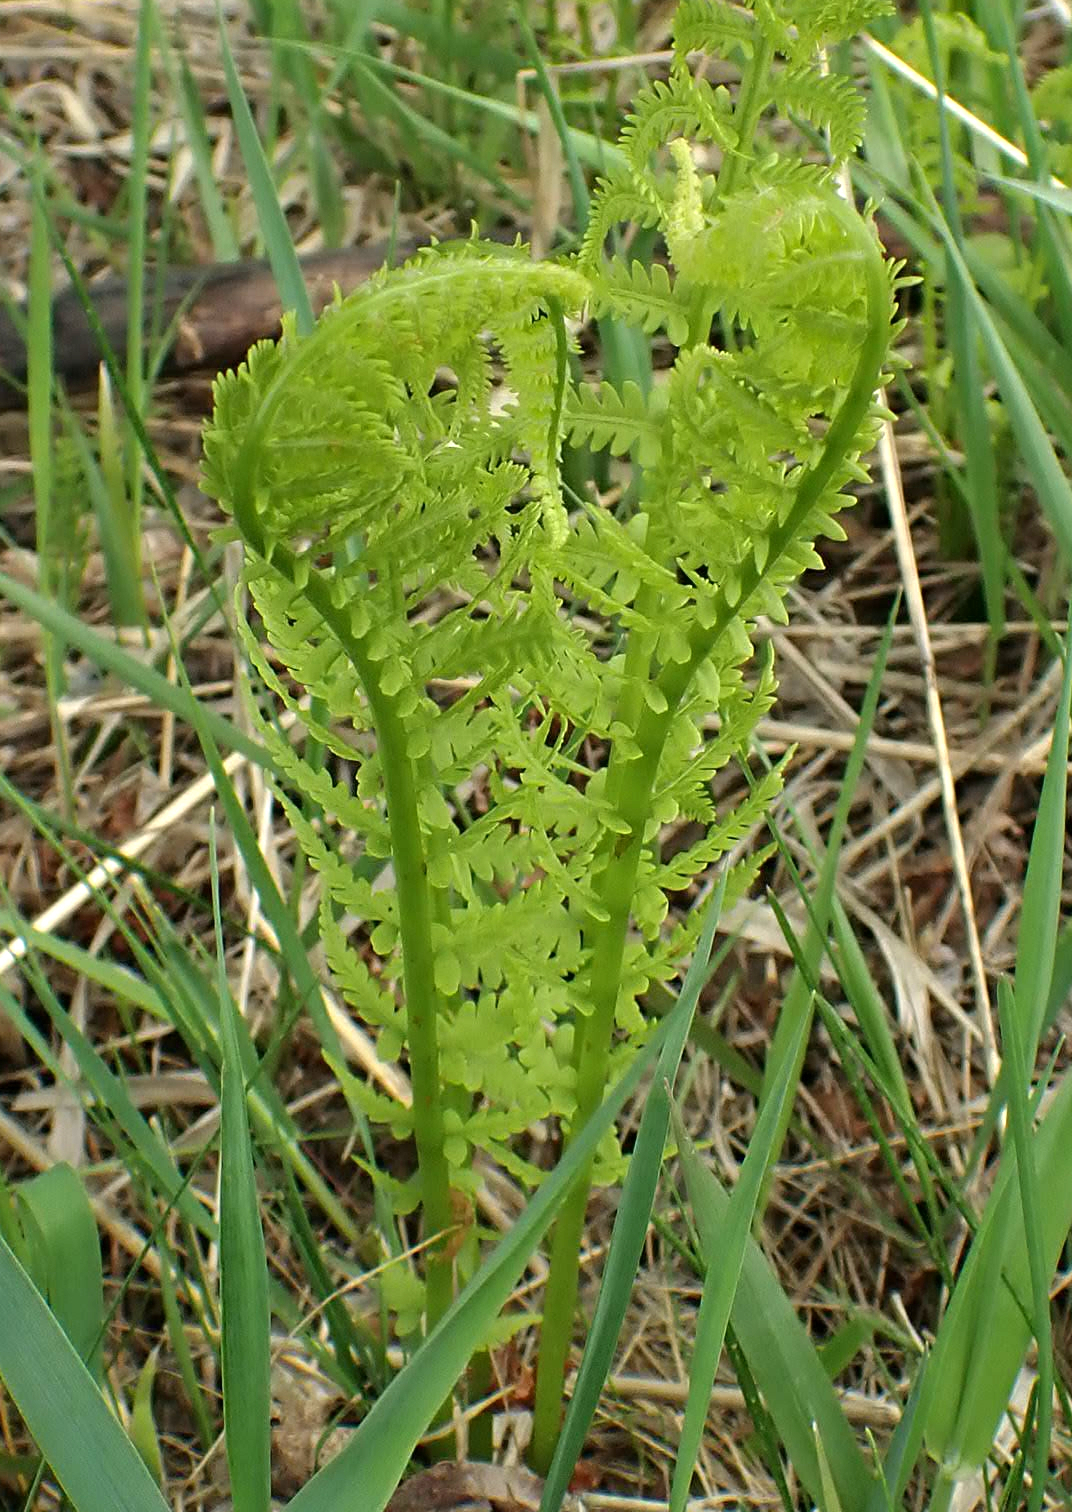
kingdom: Plantae
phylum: Tracheophyta
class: Polypodiopsida
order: Polypodiales
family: Onocleaceae
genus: Matteuccia
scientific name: Matteuccia struthiopteris
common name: Ostrich fern
